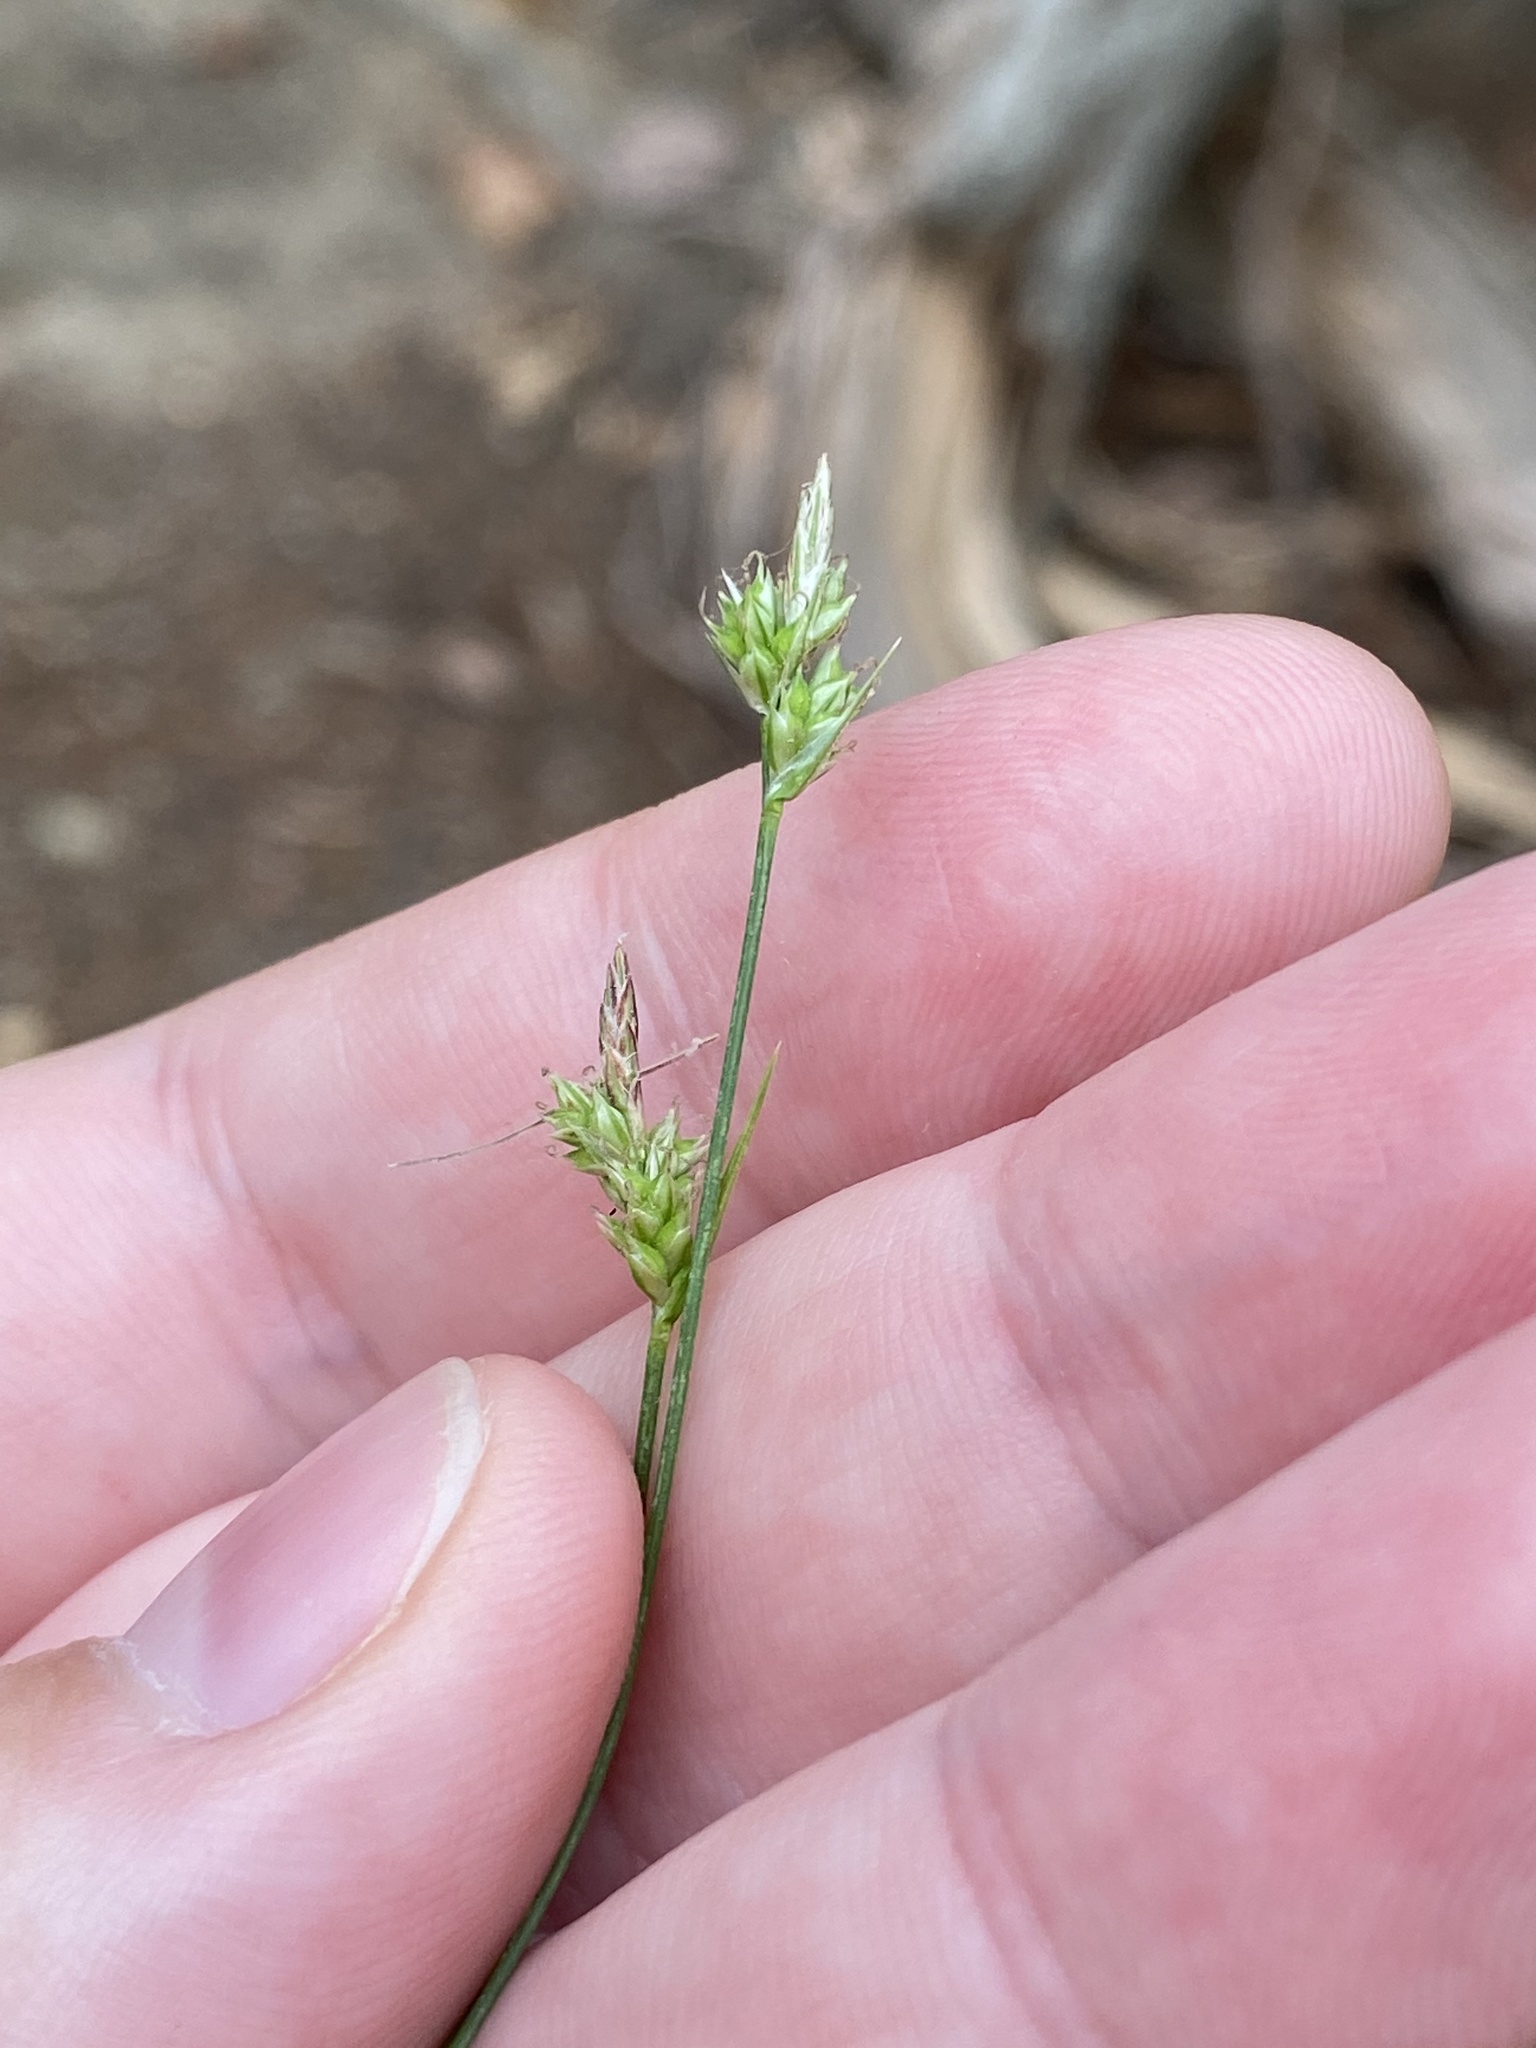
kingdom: Plantae
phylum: Tracheophyta
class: Liliopsida
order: Poales
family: Cyperaceae
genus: Carex
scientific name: Carex albicans
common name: Bellow-beaked sedge
